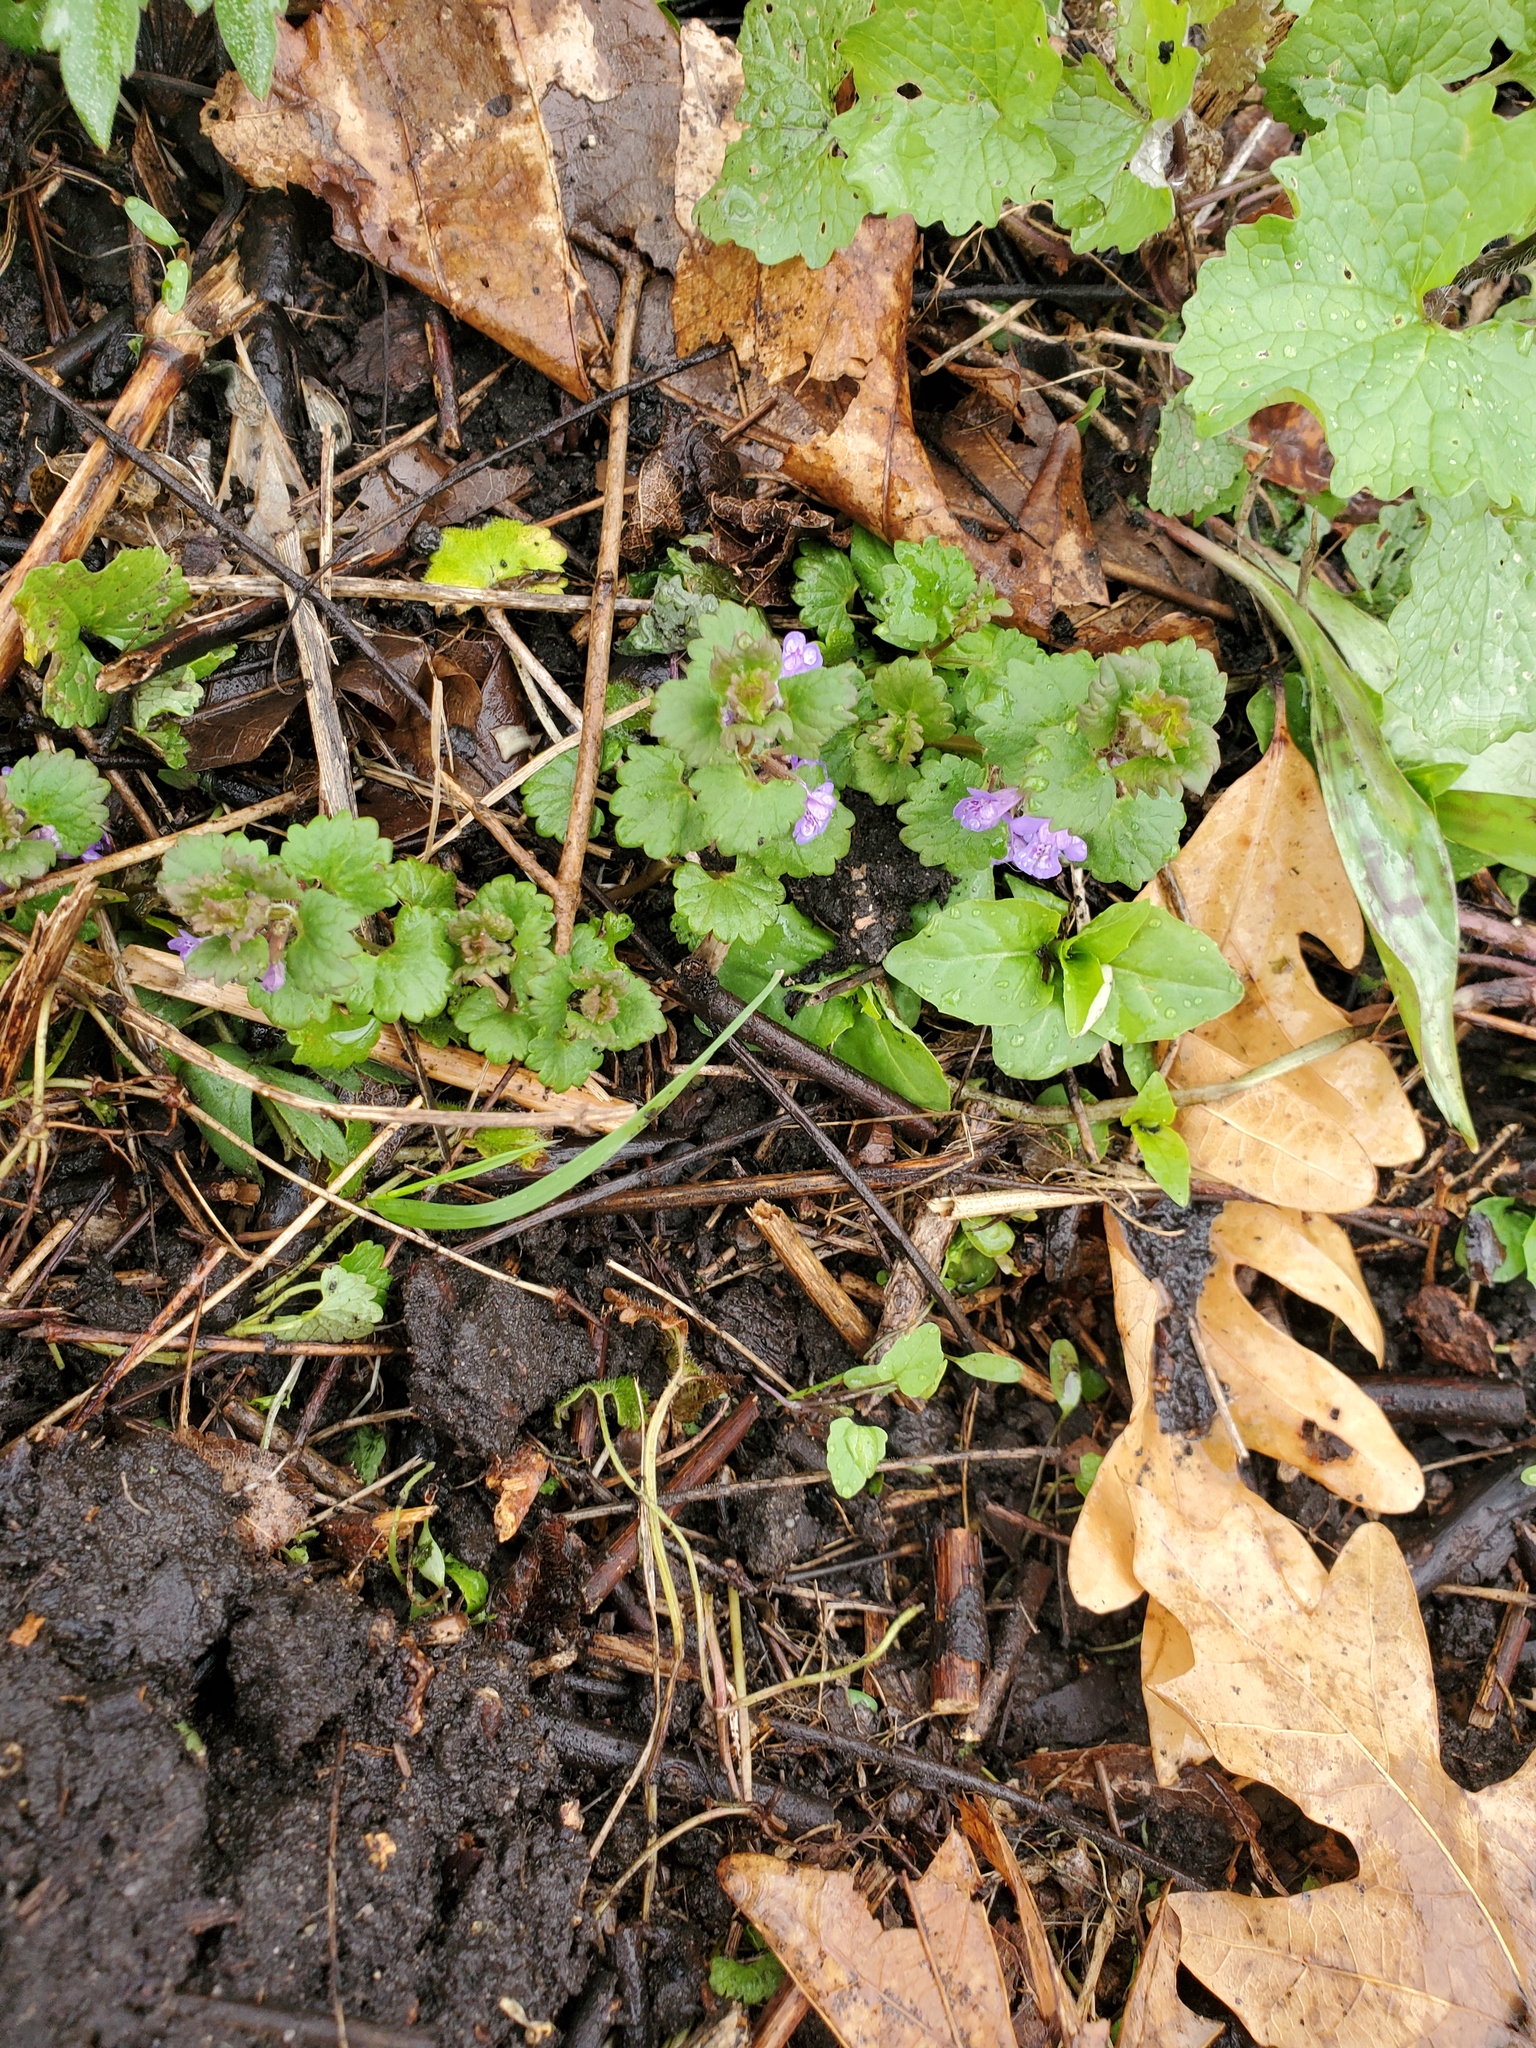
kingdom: Plantae
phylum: Tracheophyta
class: Magnoliopsida
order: Lamiales
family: Lamiaceae
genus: Glechoma
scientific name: Glechoma hederacea
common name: Ground ivy
